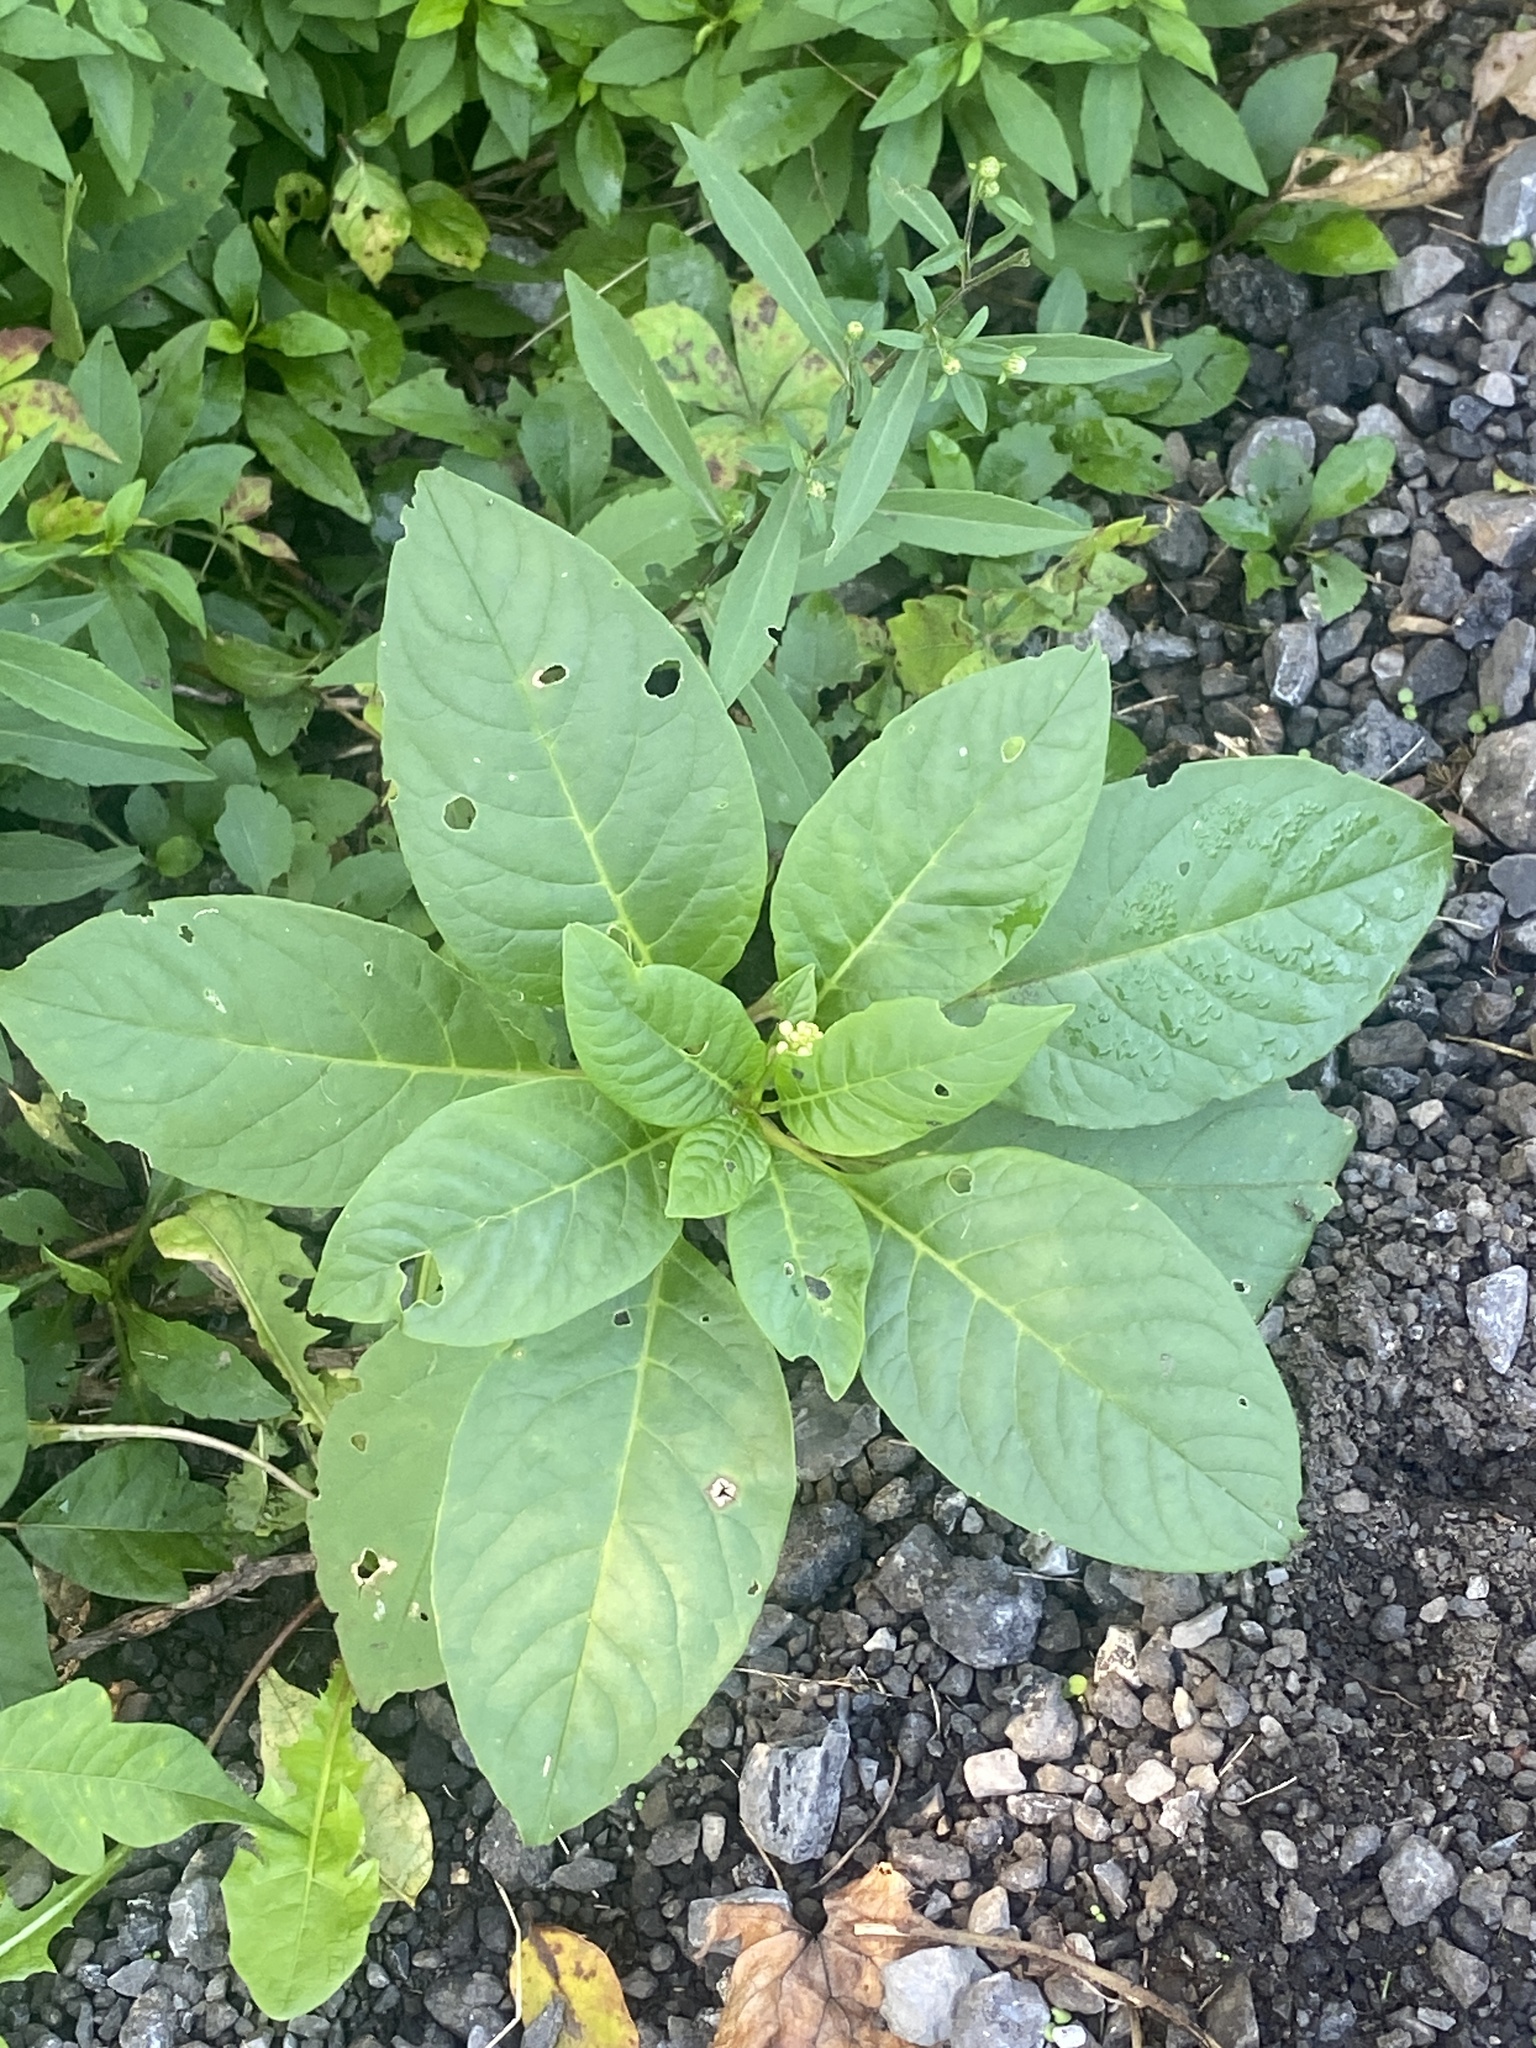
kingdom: Plantae
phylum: Tracheophyta
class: Magnoliopsida
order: Caryophyllales
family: Phytolaccaceae
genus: Phytolacca
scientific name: Phytolacca americana
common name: American pokeweed
